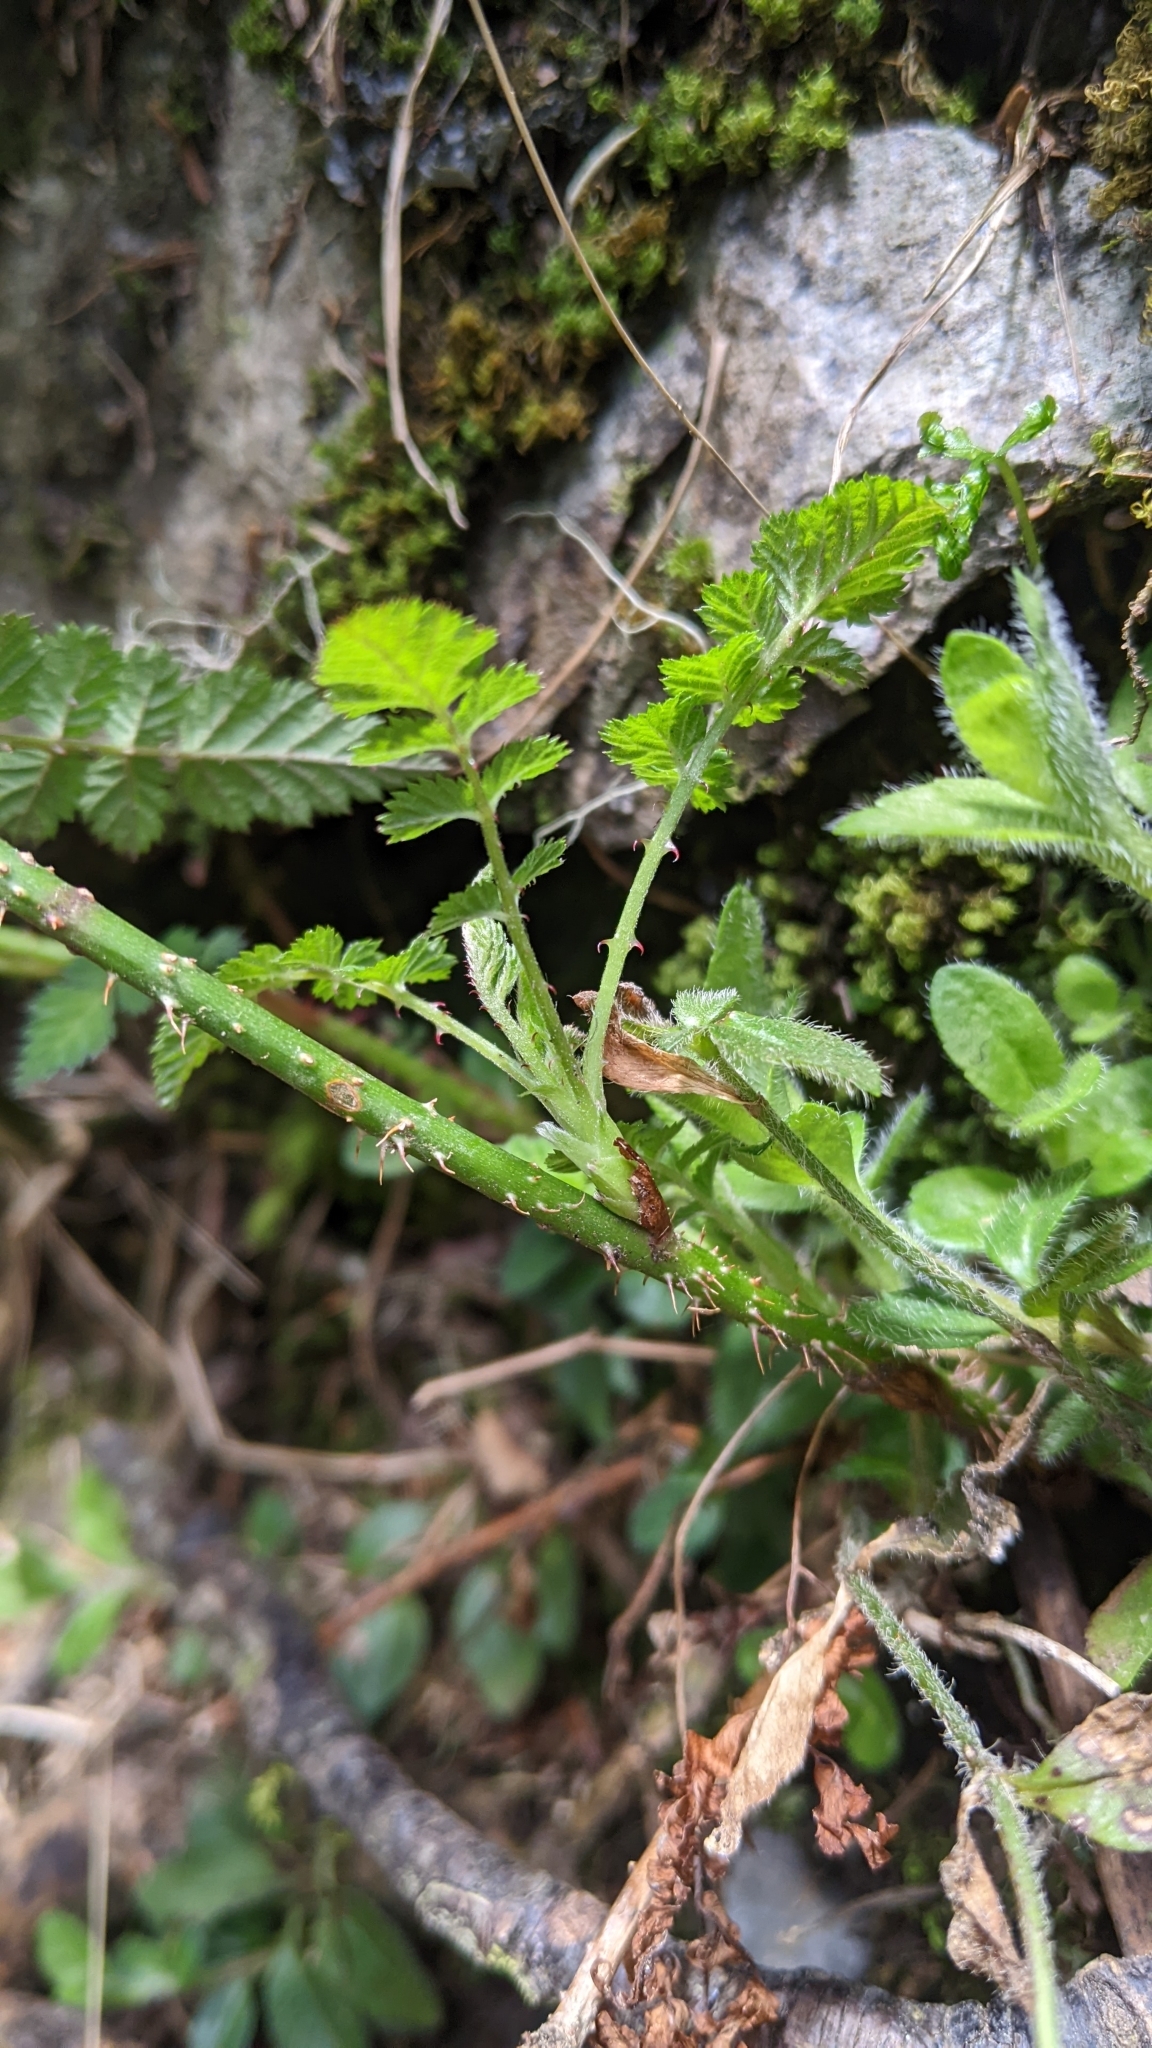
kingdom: Plantae
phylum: Tracheophyta
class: Magnoliopsida
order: Rosales
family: Rosaceae
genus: Rubus
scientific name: Rubus pungens
